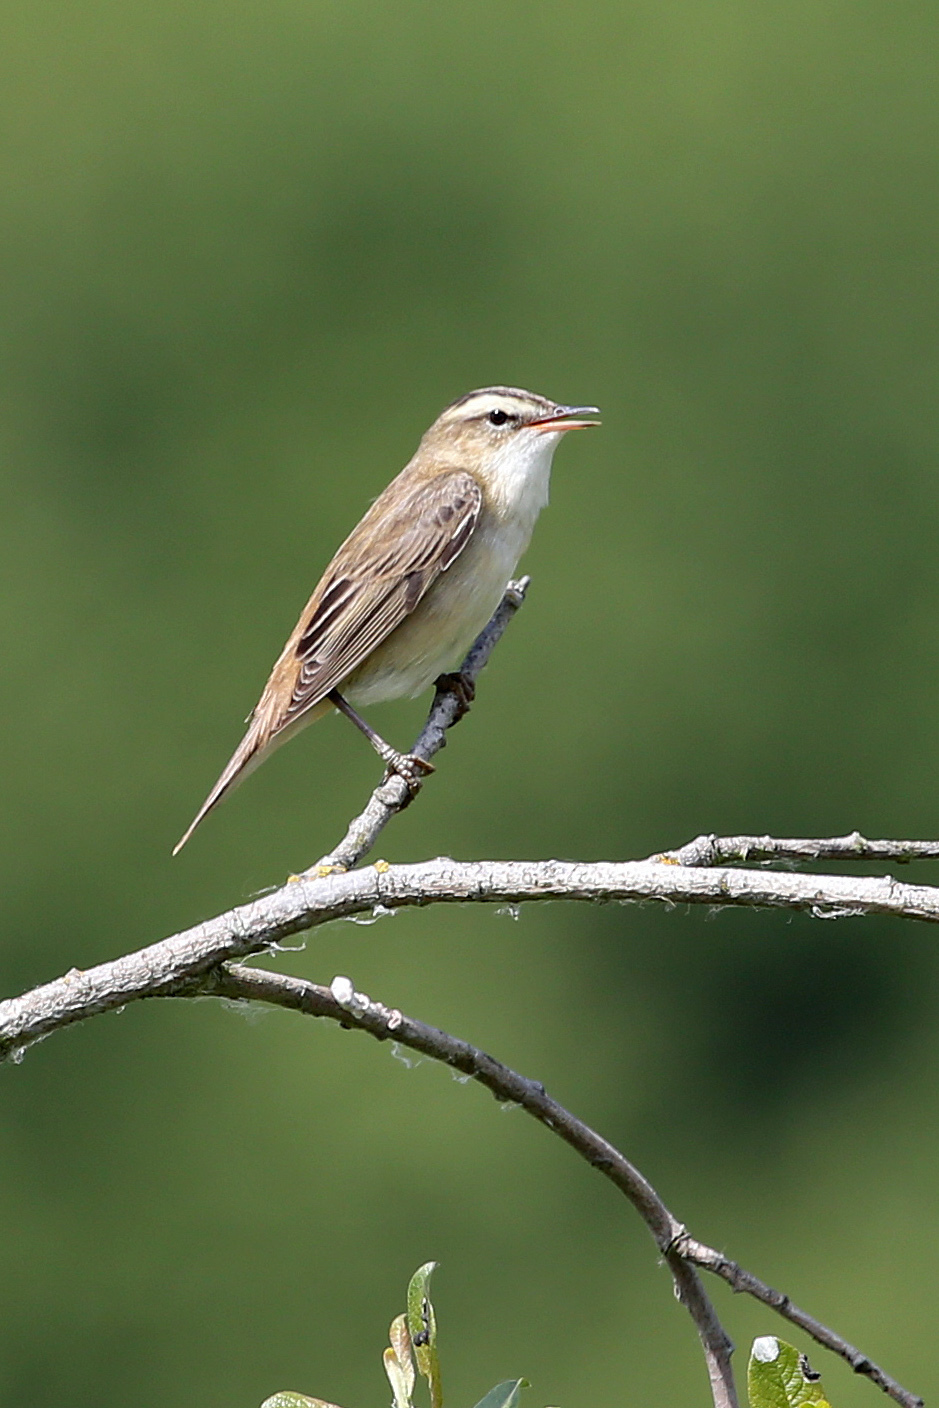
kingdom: Animalia
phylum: Chordata
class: Aves
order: Passeriformes
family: Acrocephalidae
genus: Acrocephalus
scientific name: Acrocephalus schoenobaenus
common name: Sedge warbler
